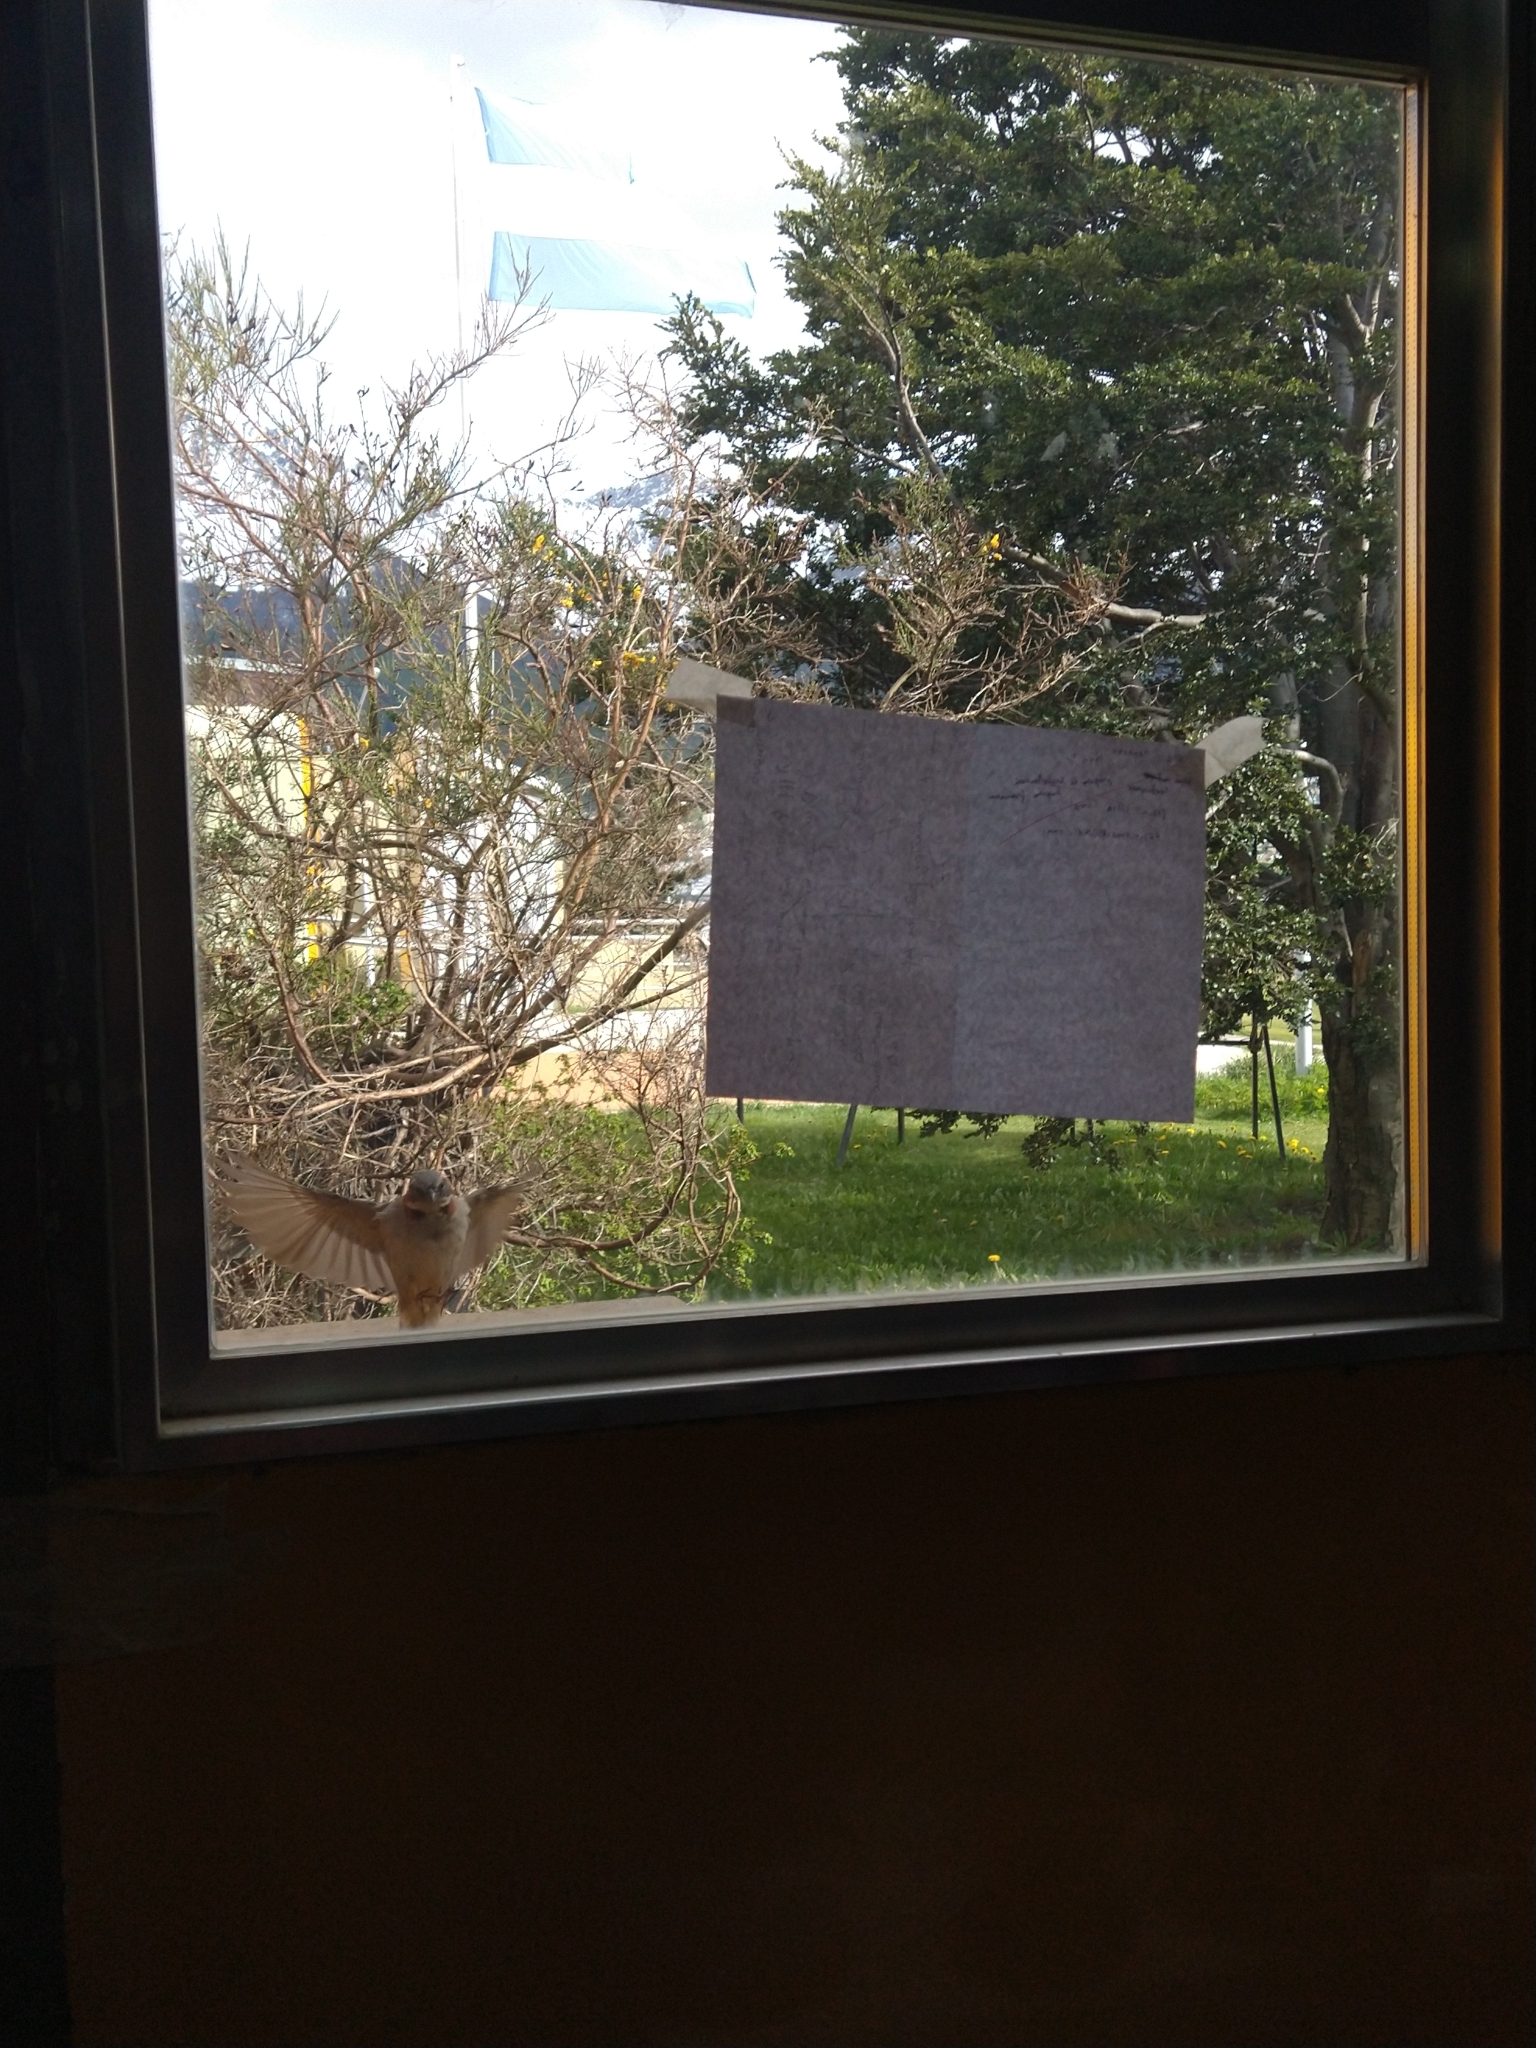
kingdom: Animalia
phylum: Chordata
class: Aves
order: Passeriformes
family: Passerellidae
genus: Zonotrichia
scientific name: Zonotrichia capensis
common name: Rufous-collared sparrow
